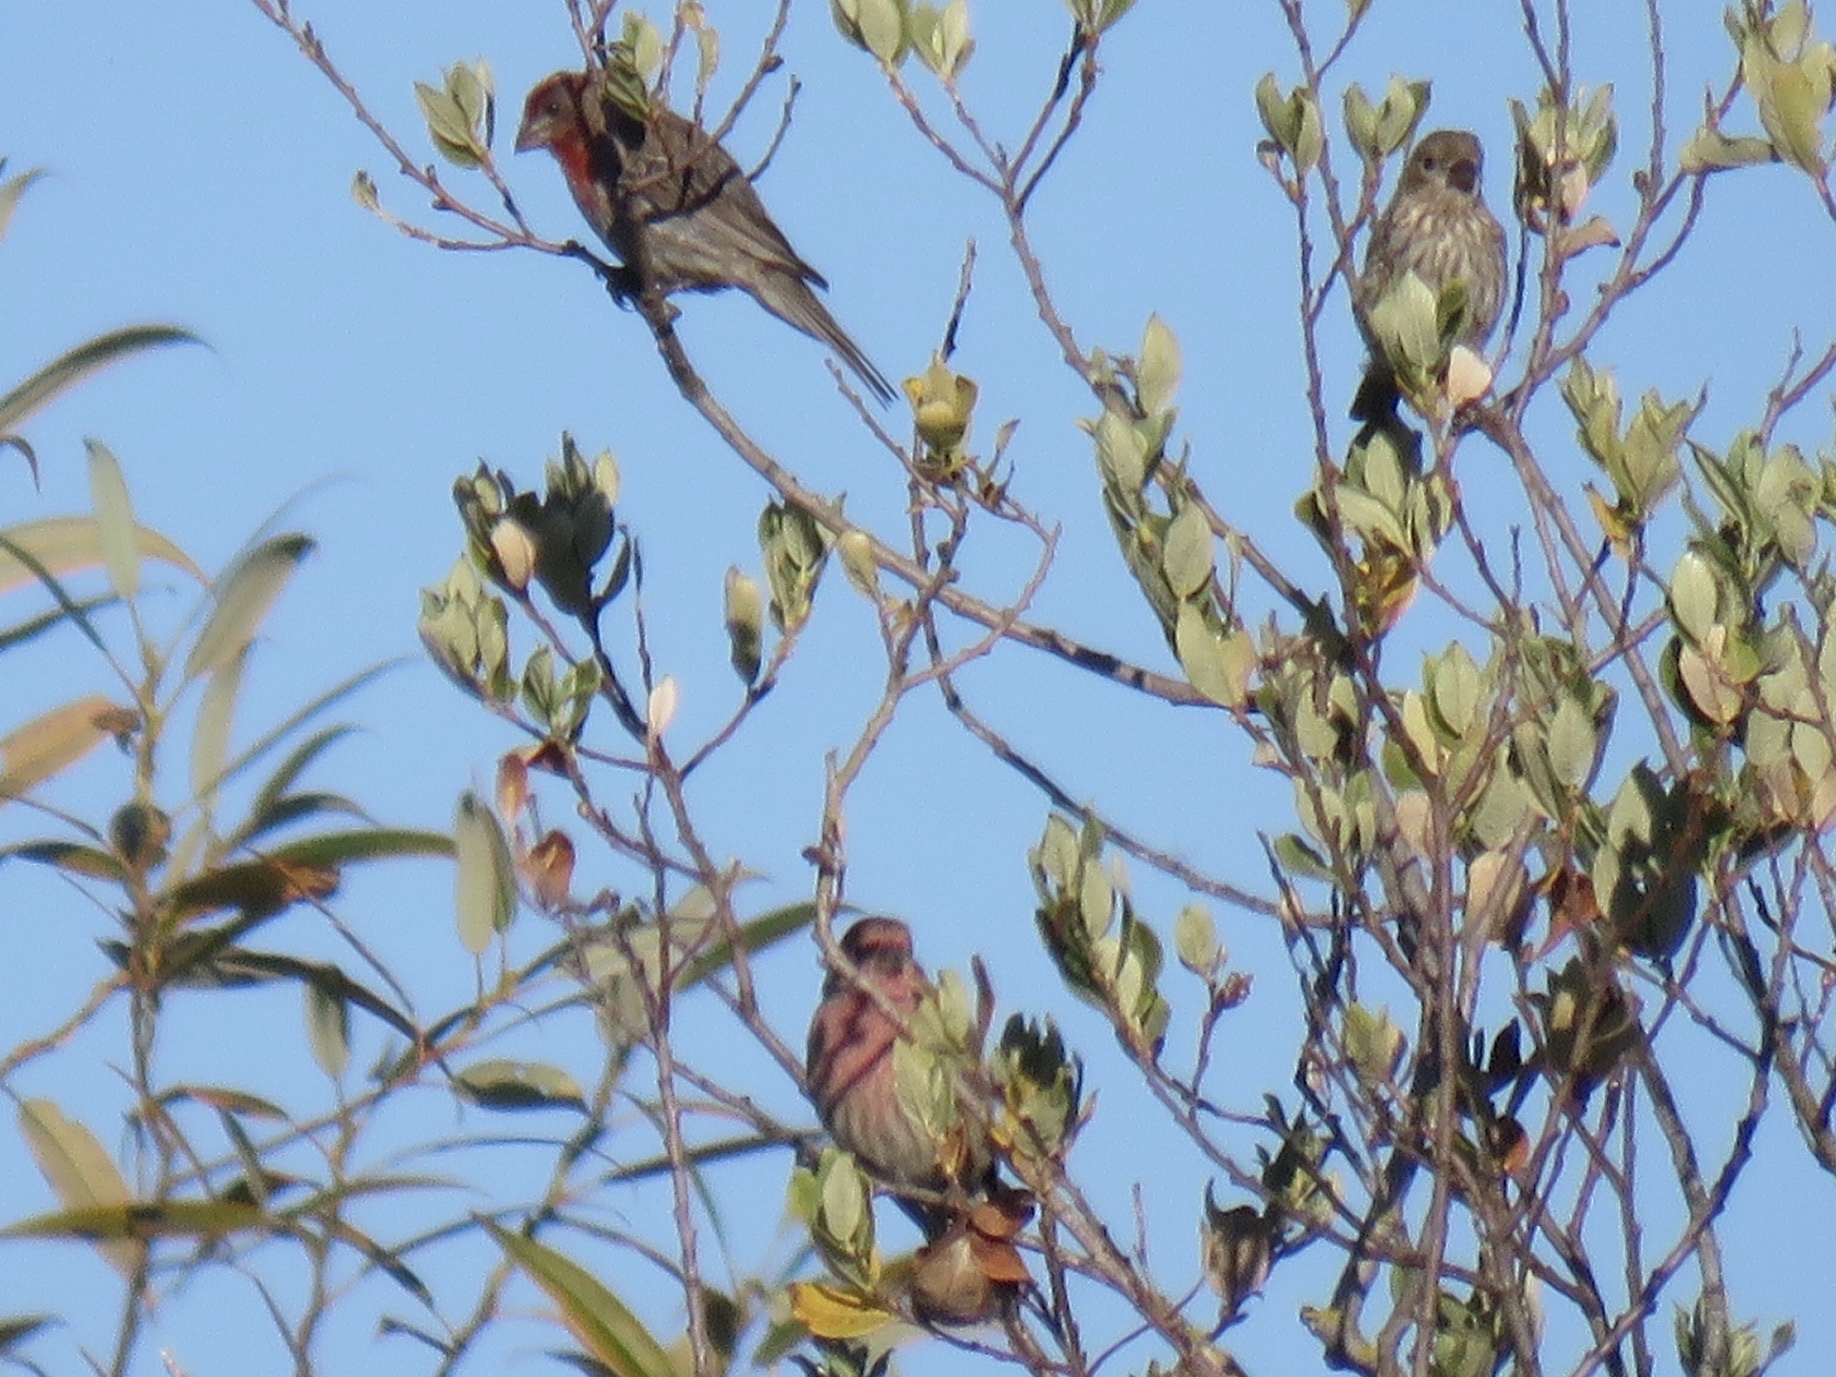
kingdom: Animalia
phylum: Chordata
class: Aves
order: Passeriformes
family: Fringillidae
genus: Haemorhous
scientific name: Haemorhous mexicanus
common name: House finch
